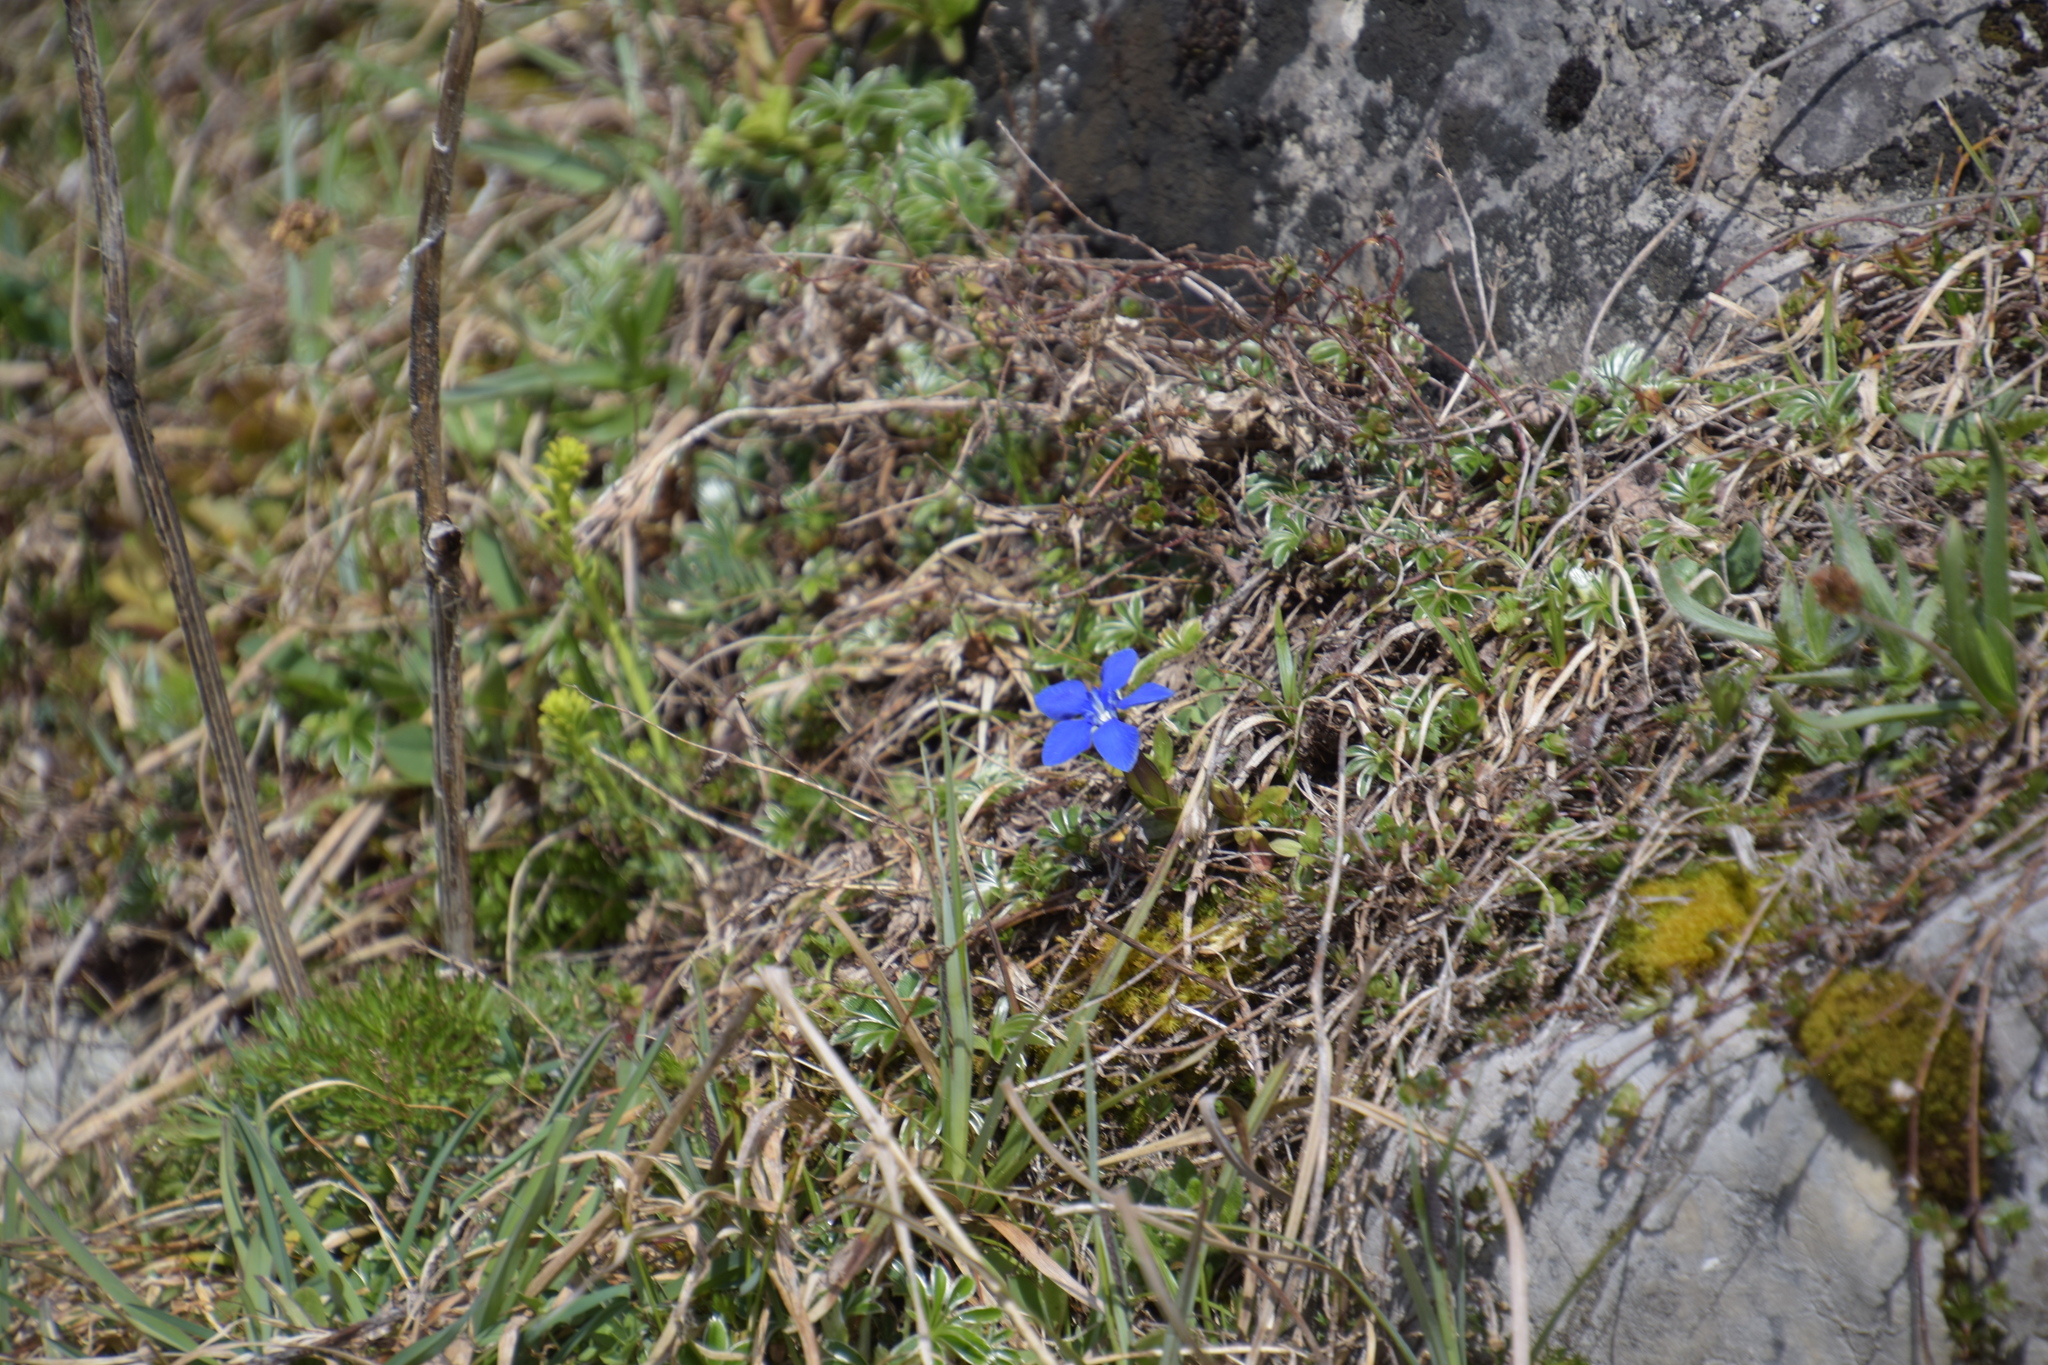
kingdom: Plantae
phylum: Tracheophyta
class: Magnoliopsida
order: Gentianales
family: Gentianaceae
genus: Gentiana
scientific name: Gentiana verna
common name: Spring gentian
